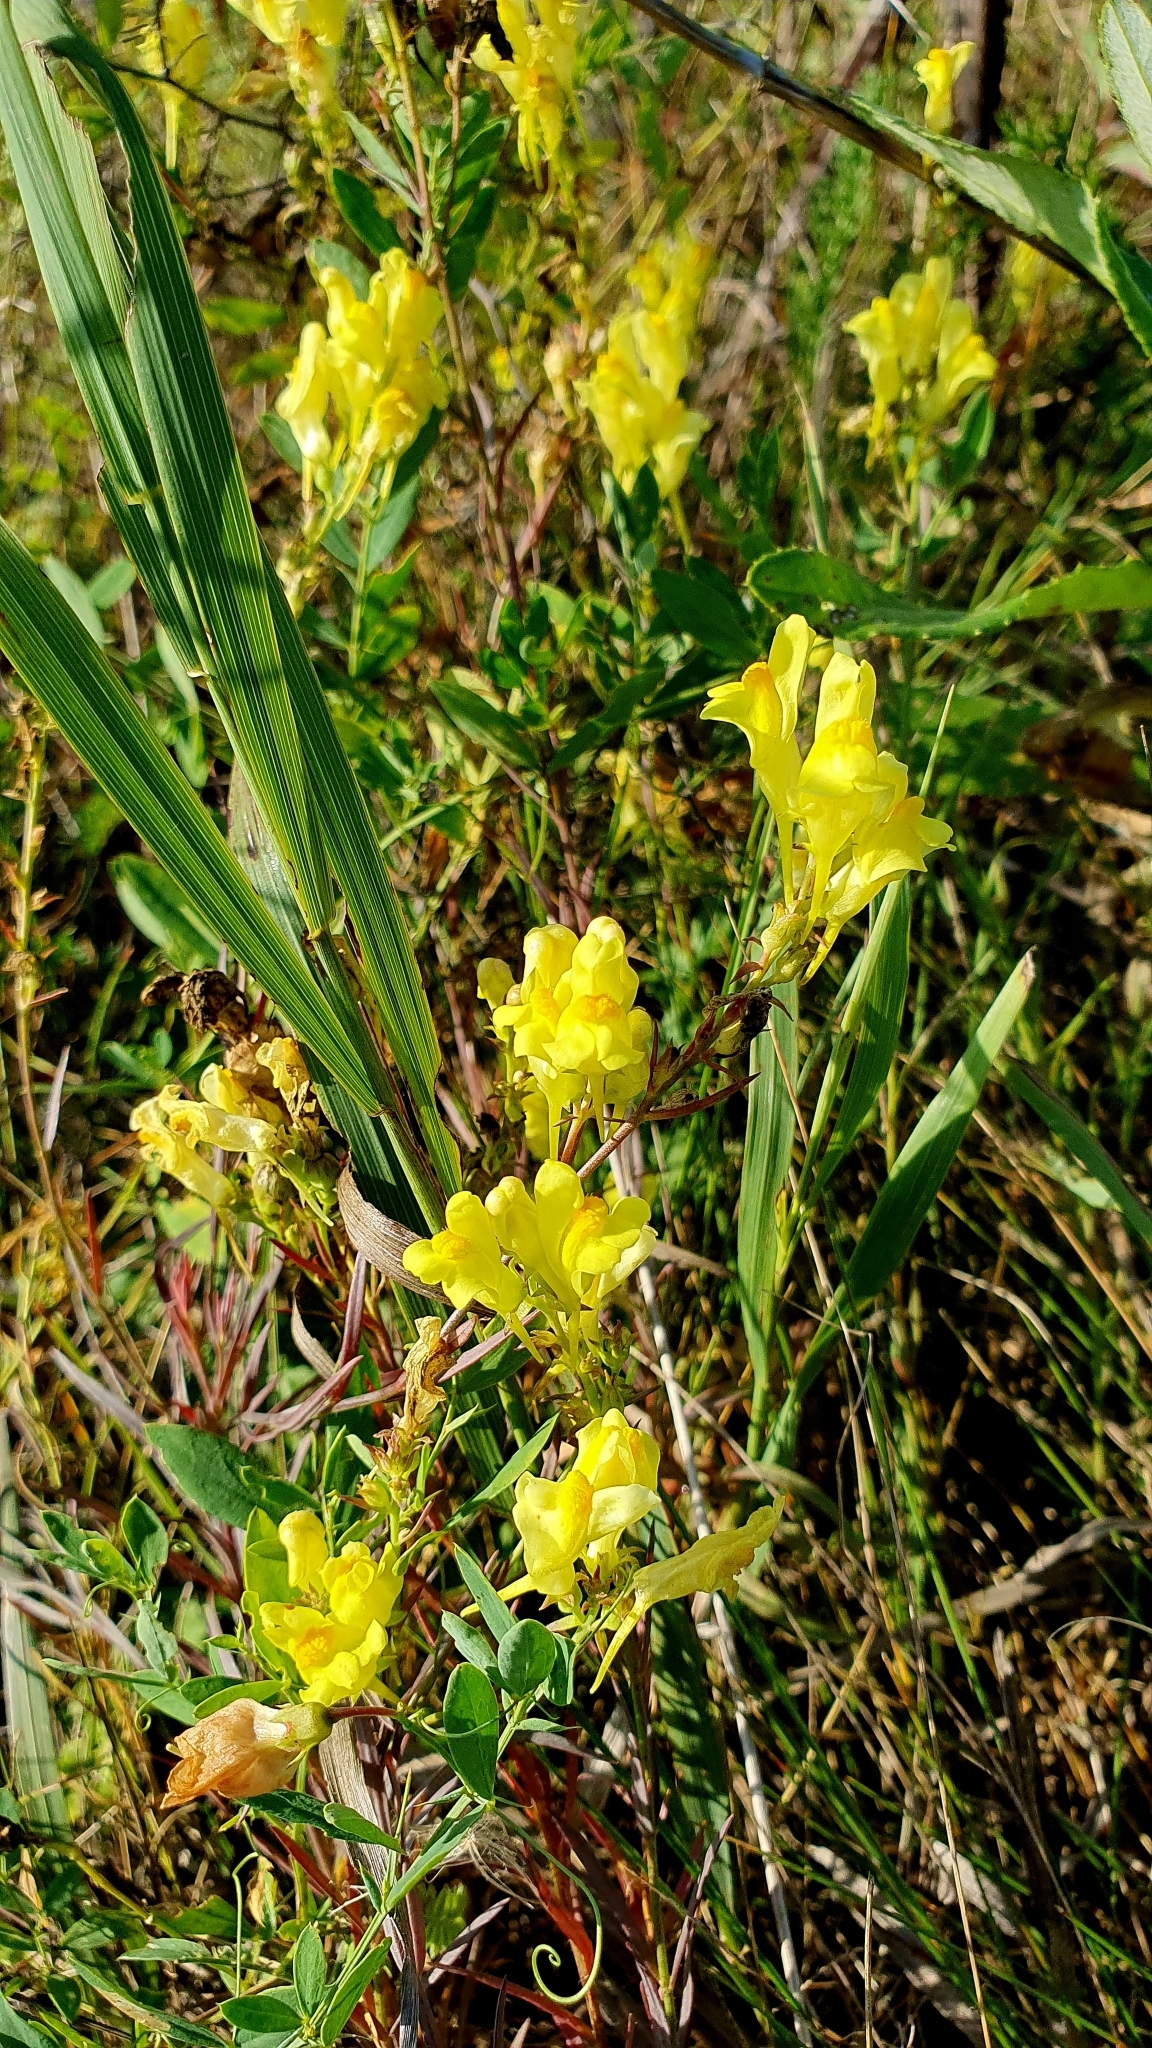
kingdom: Plantae
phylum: Tracheophyta
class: Magnoliopsida
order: Lamiales
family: Plantaginaceae
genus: Linaria
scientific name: Linaria vulgaris
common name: Butter and eggs
